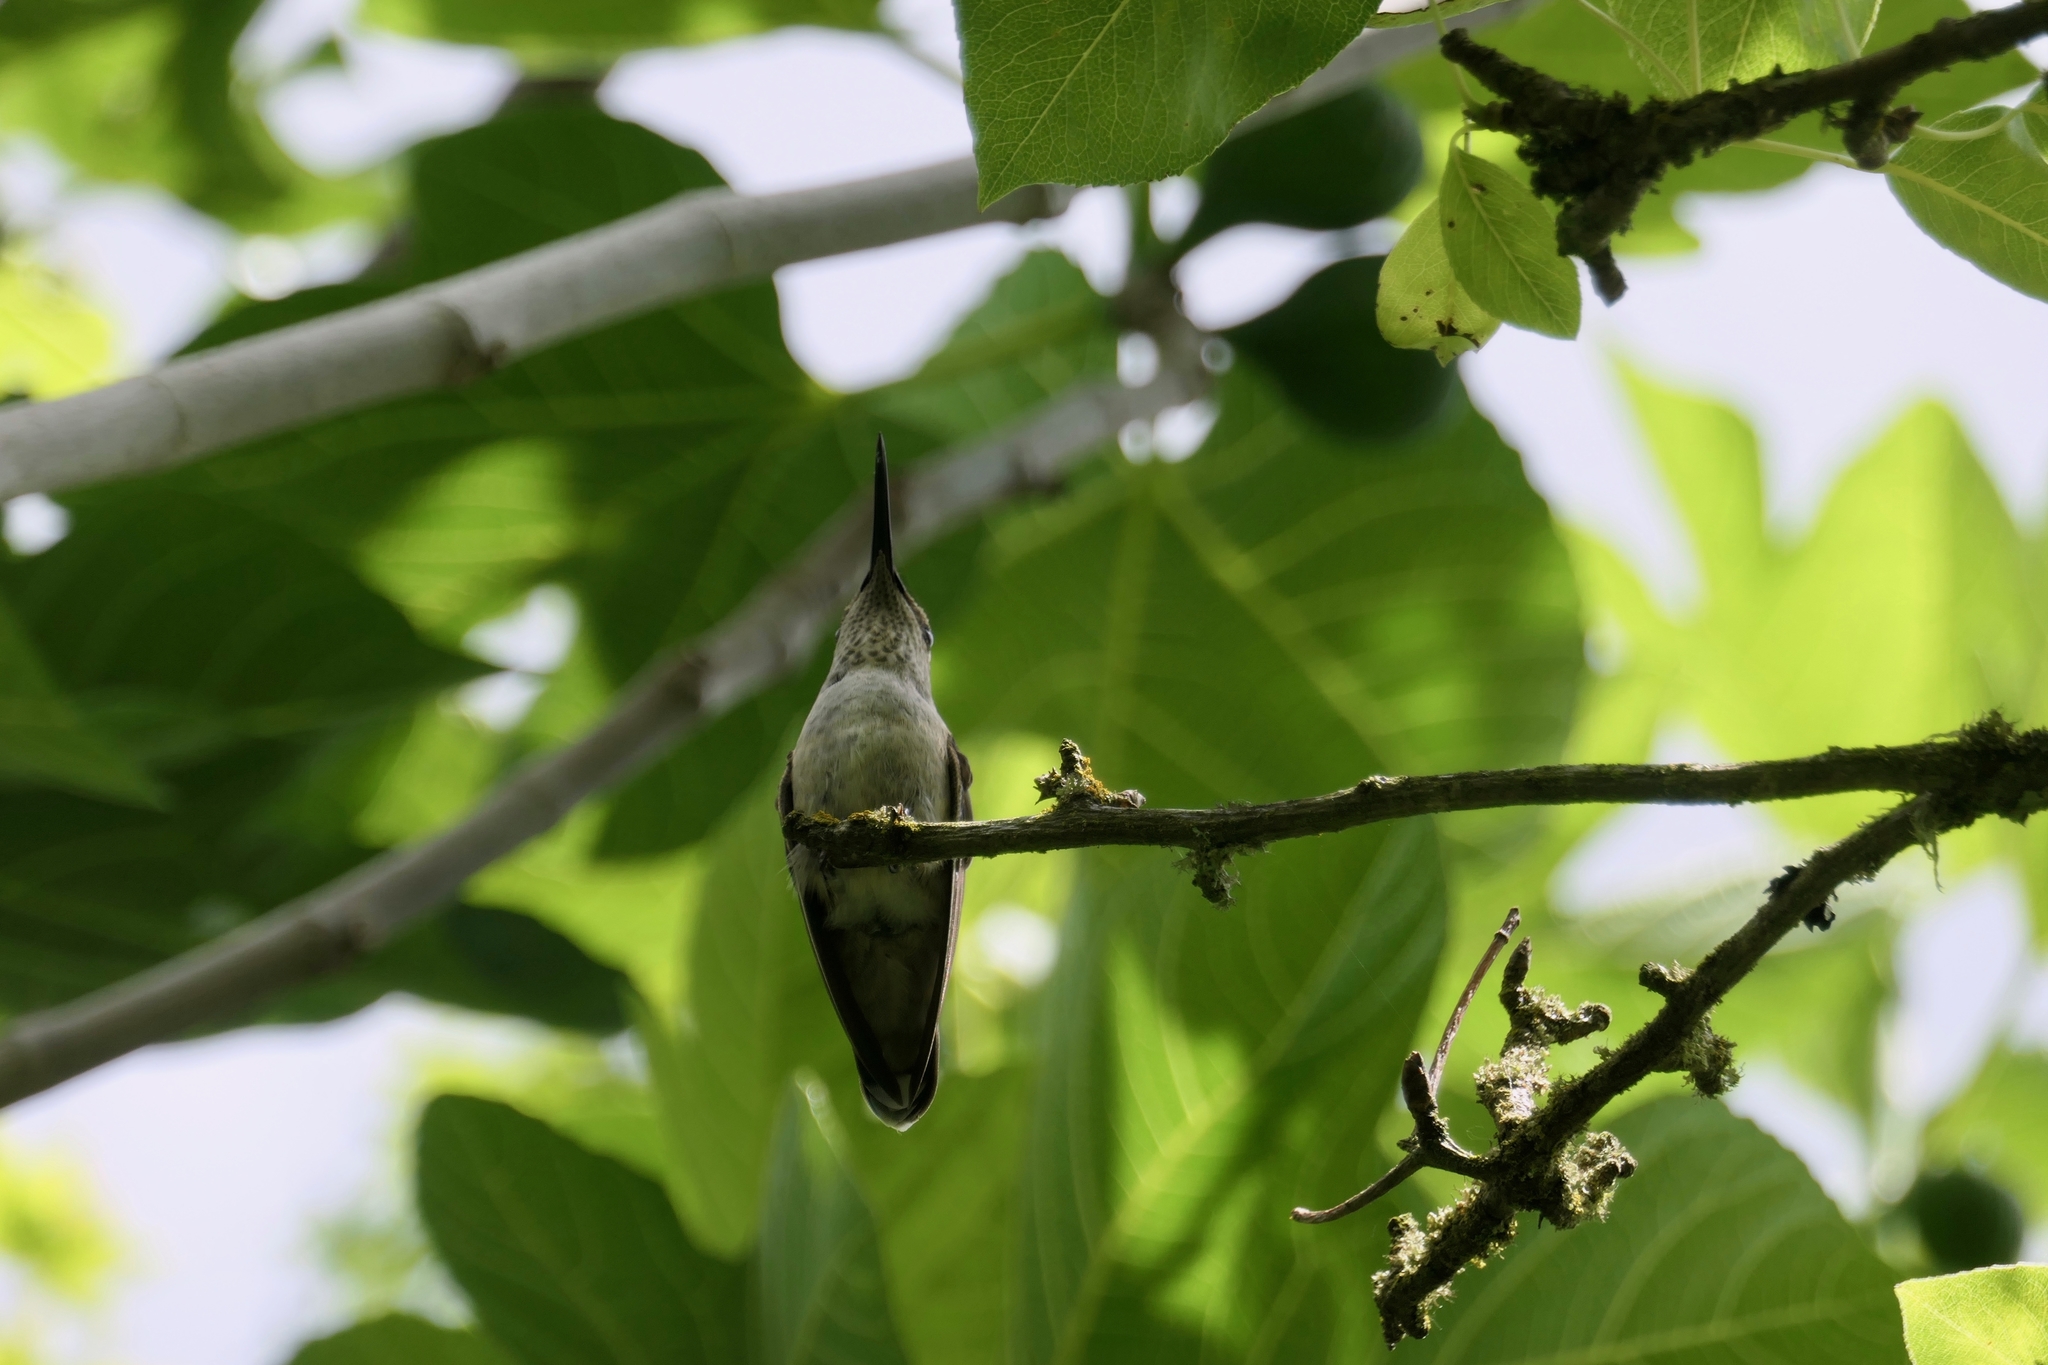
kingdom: Animalia
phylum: Chordata
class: Aves
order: Apodiformes
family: Trochilidae
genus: Calypte
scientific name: Calypte anna
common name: Anna's hummingbird
